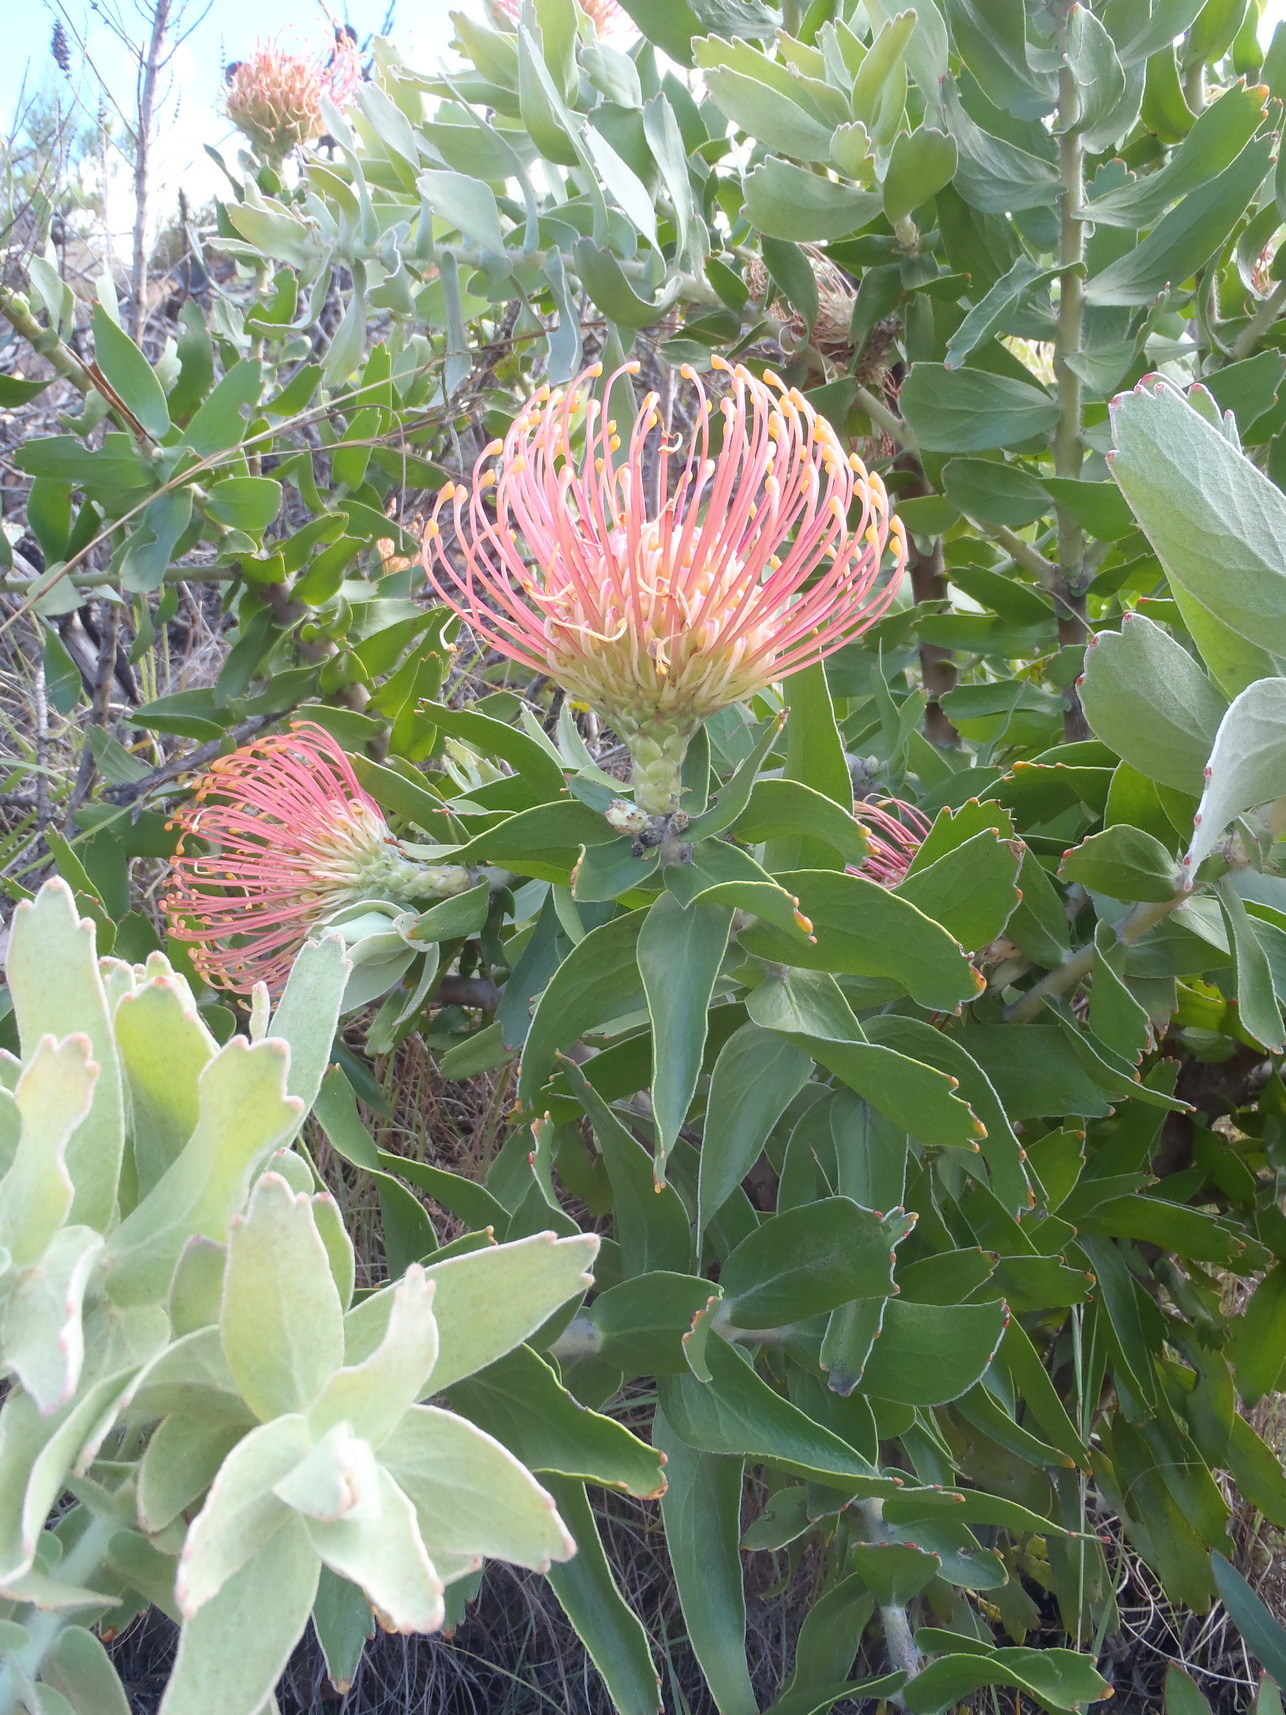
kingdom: Plantae
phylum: Tracheophyta
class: Magnoliopsida
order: Proteales
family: Proteaceae
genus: Leucospermum
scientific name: Leucospermum
